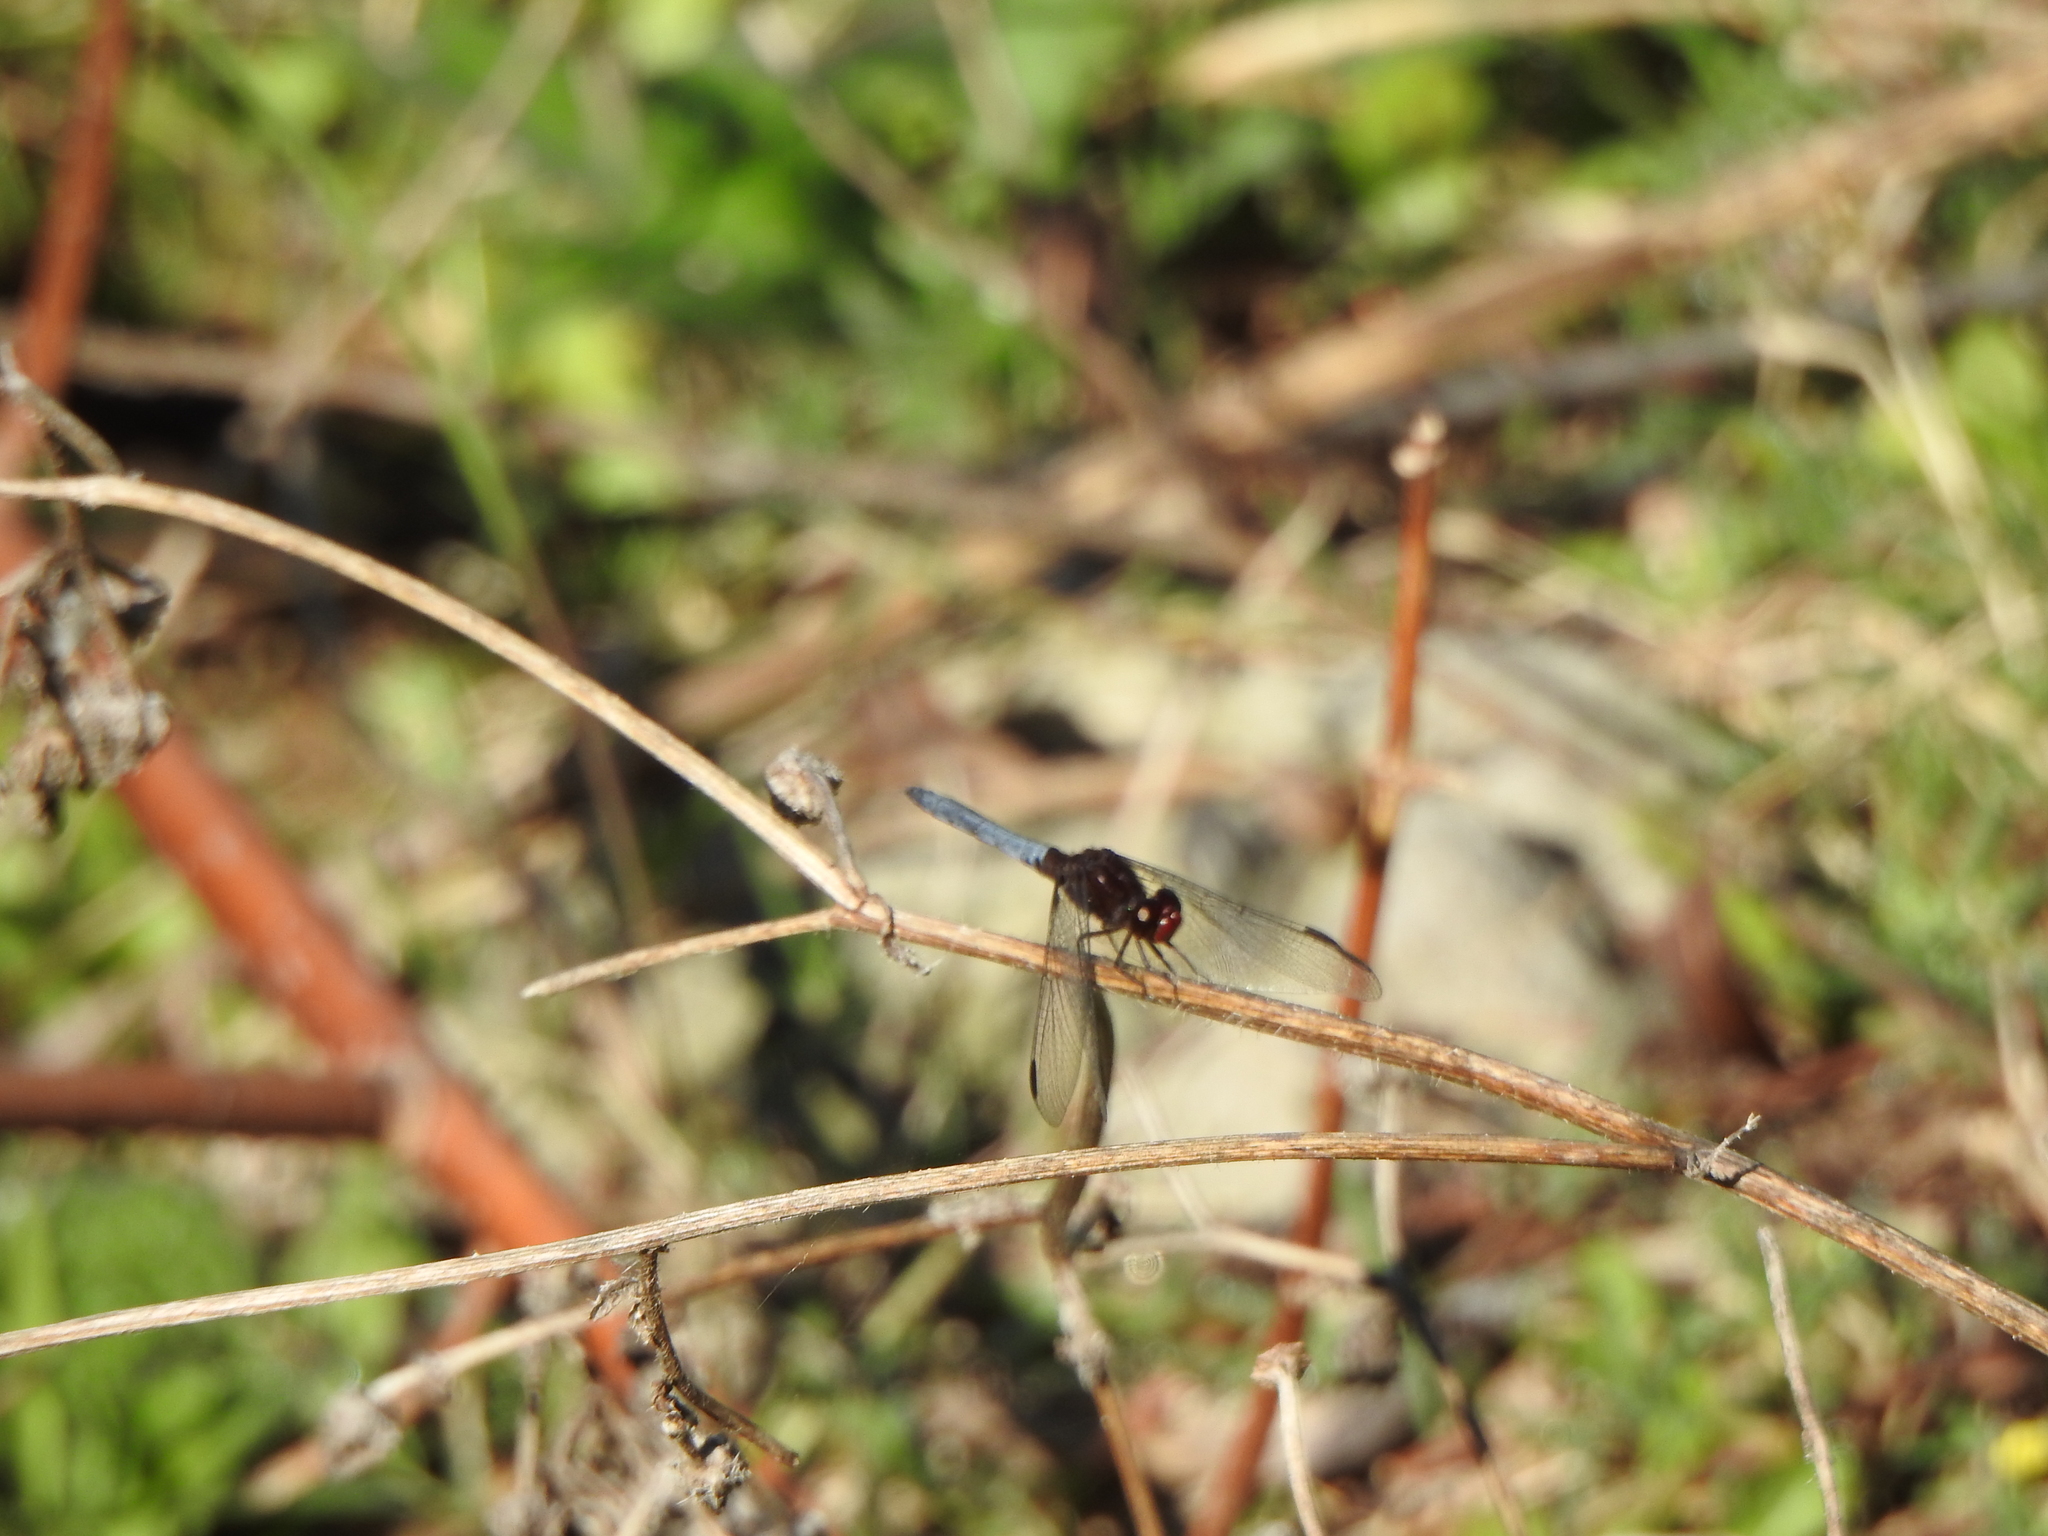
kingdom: Animalia
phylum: Arthropoda
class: Insecta
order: Odonata
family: Libellulidae
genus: Erythrodiplax
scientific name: Erythrodiplax melanorubra
